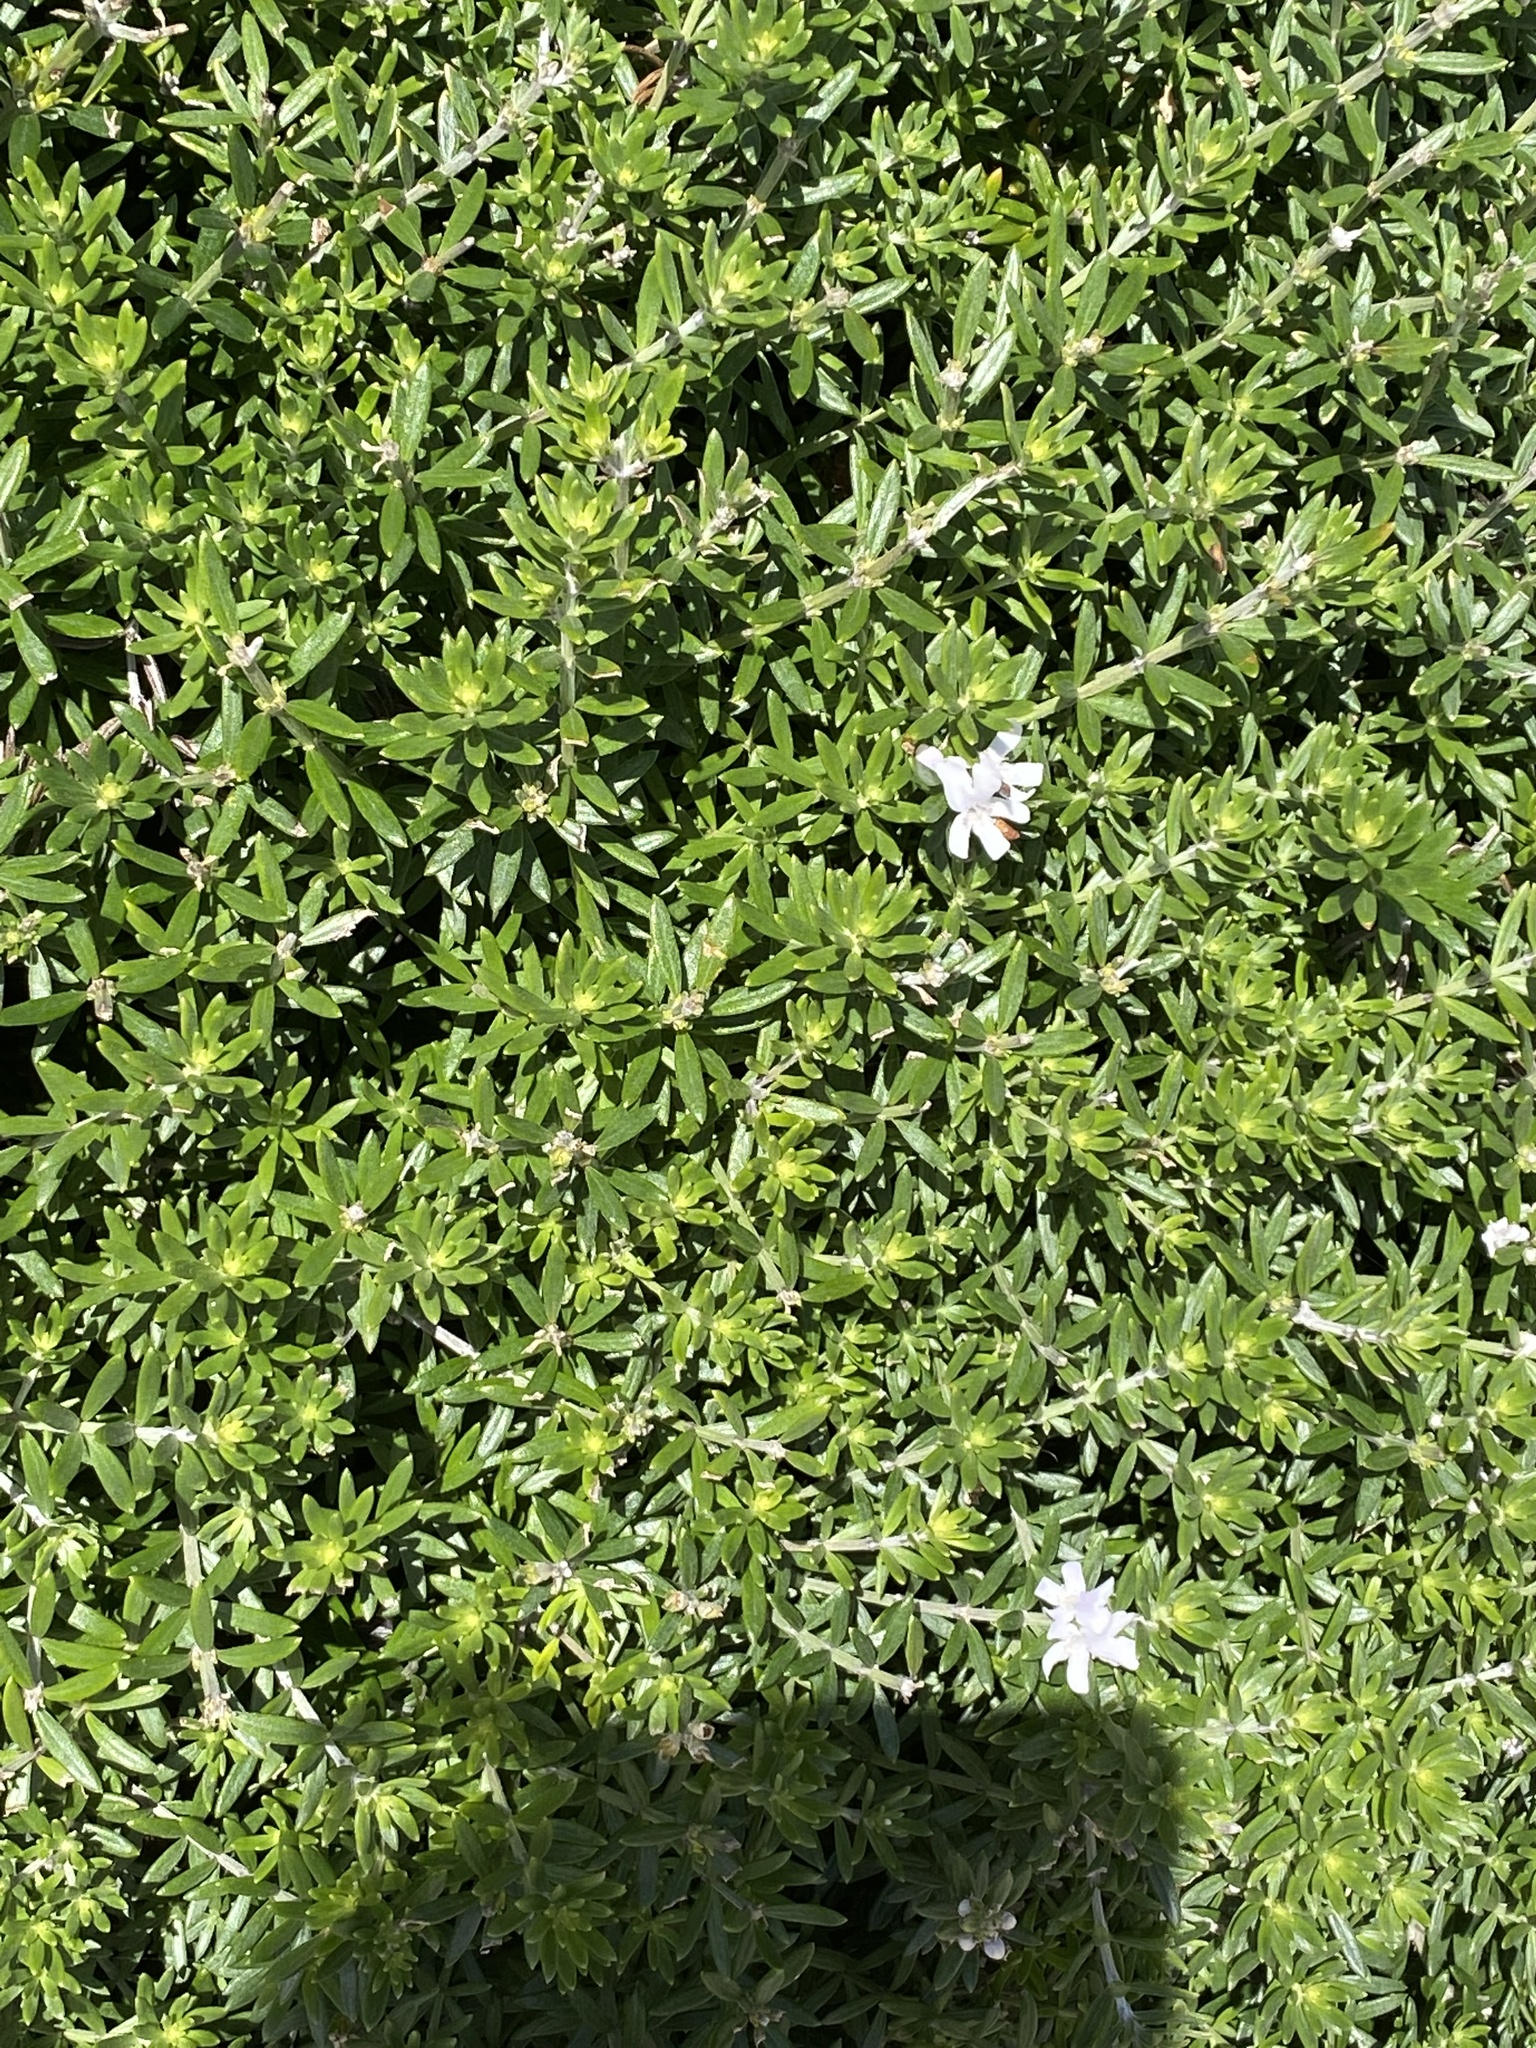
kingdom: Plantae
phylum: Tracheophyta
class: Magnoliopsida
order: Lamiales
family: Lamiaceae
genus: Westringia
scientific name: Westringia fruticosa
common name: Coastal-rosemary
